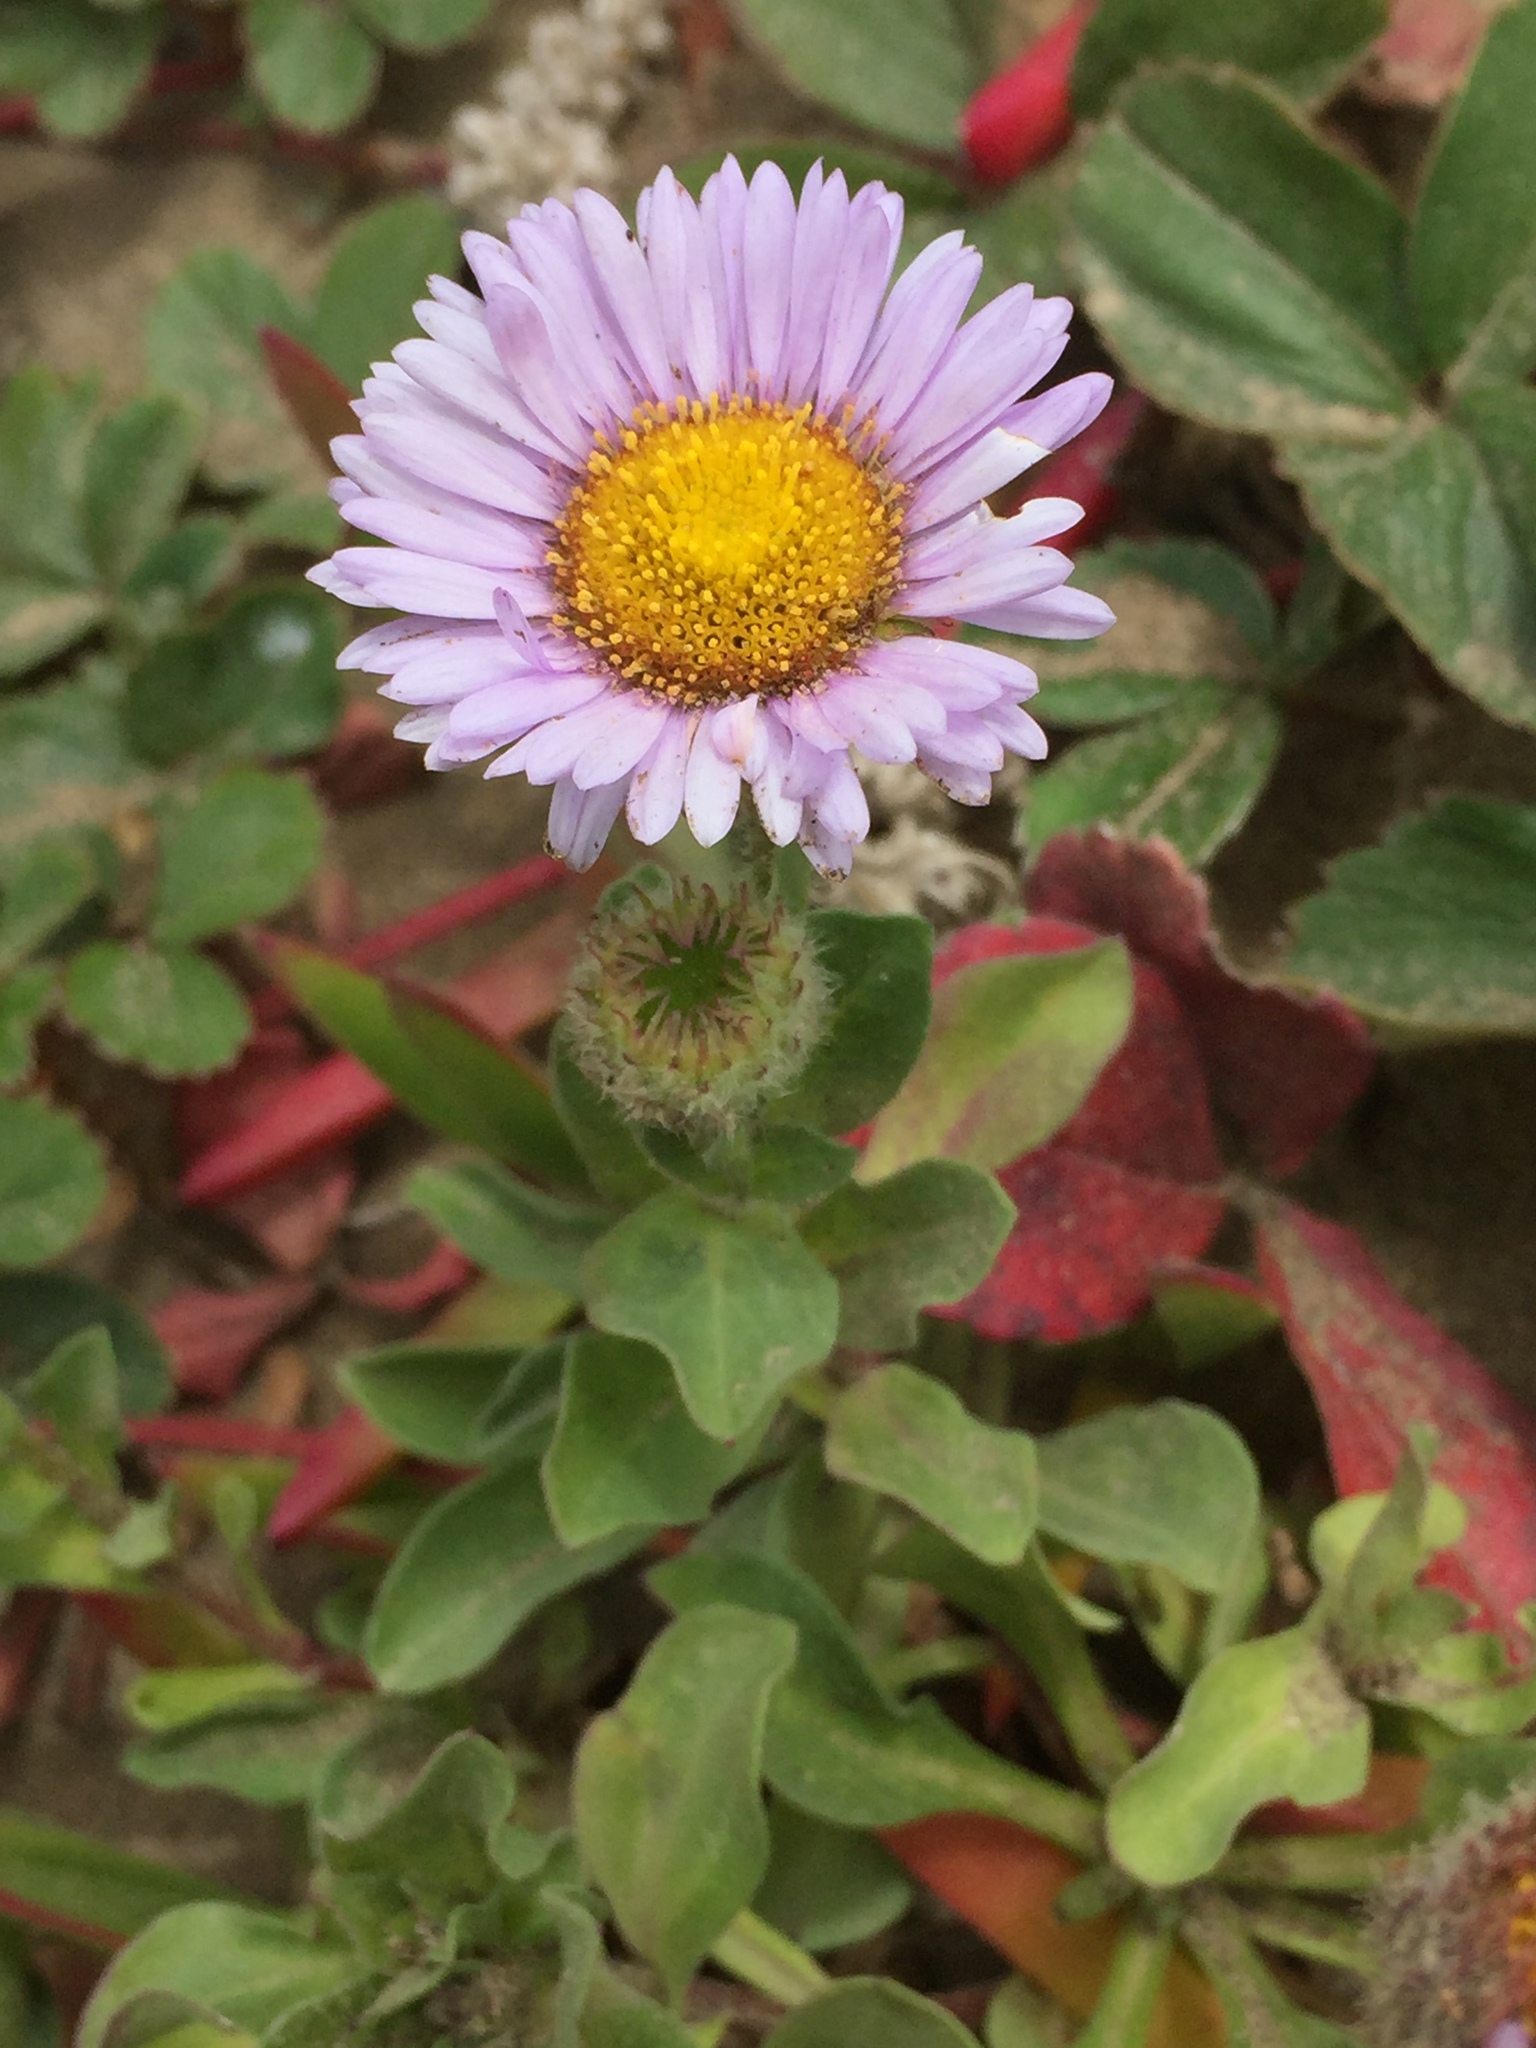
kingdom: Plantae
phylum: Tracheophyta
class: Magnoliopsida
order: Asterales
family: Asteraceae
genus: Erigeron
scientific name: Erigeron glaucus
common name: Seaside daisy
